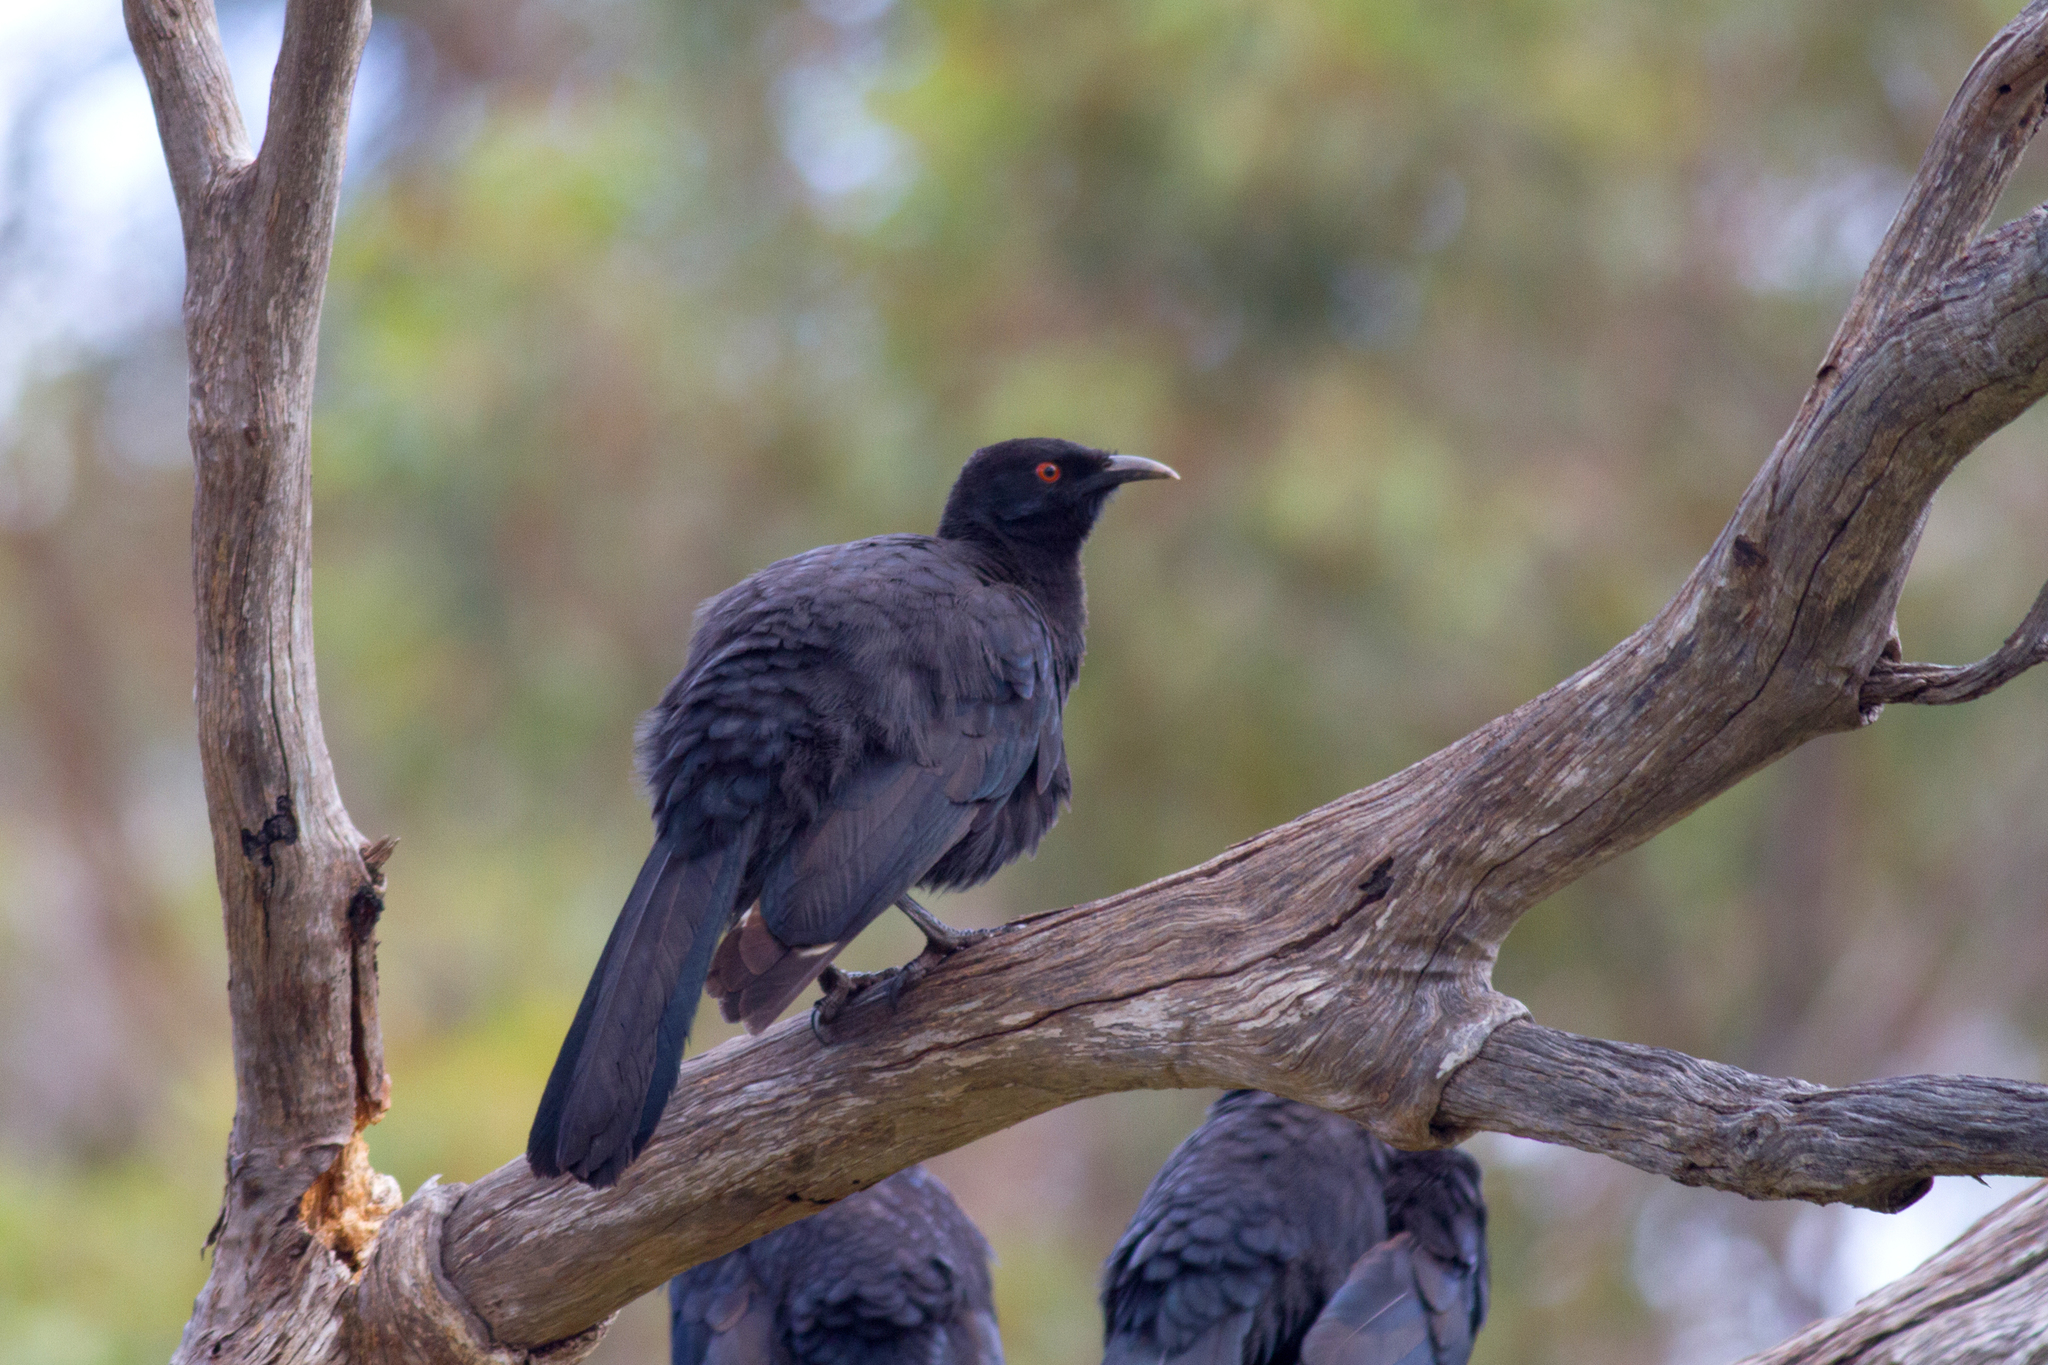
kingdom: Animalia
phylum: Chordata
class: Aves
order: Passeriformes
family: Corcoracidae
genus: Corcorax
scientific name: Corcorax melanoramphos
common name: White-winged chough
